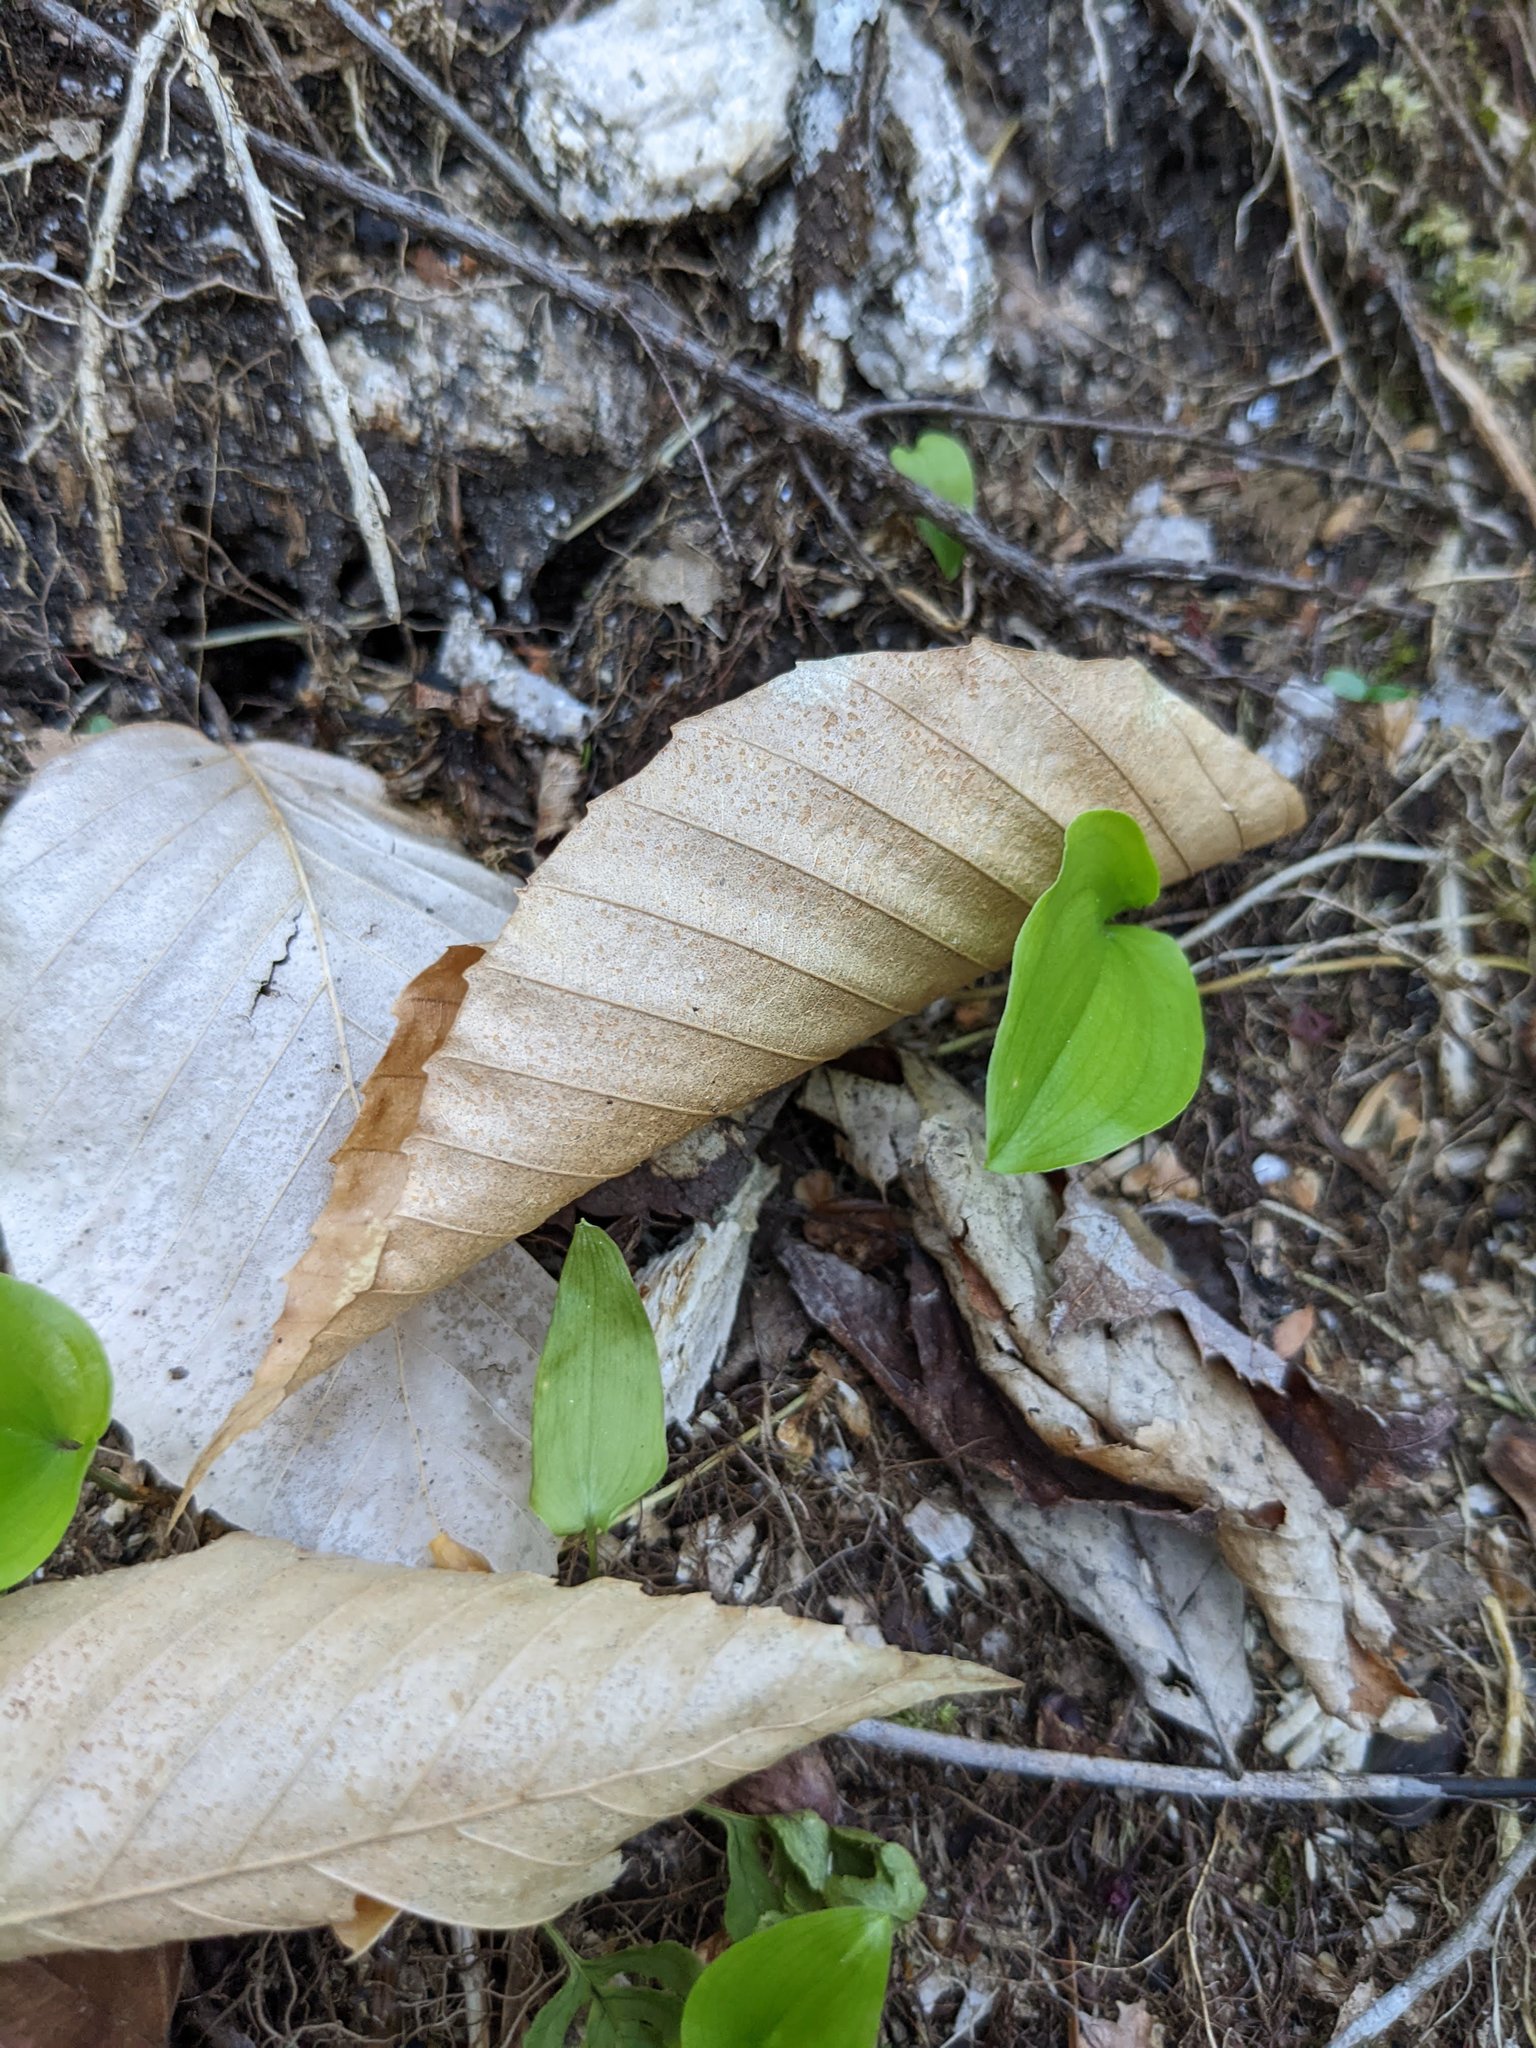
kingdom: Plantae
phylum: Tracheophyta
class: Magnoliopsida
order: Fagales
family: Fagaceae
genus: Fagus
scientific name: Fagus grandifolia
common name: American beech
